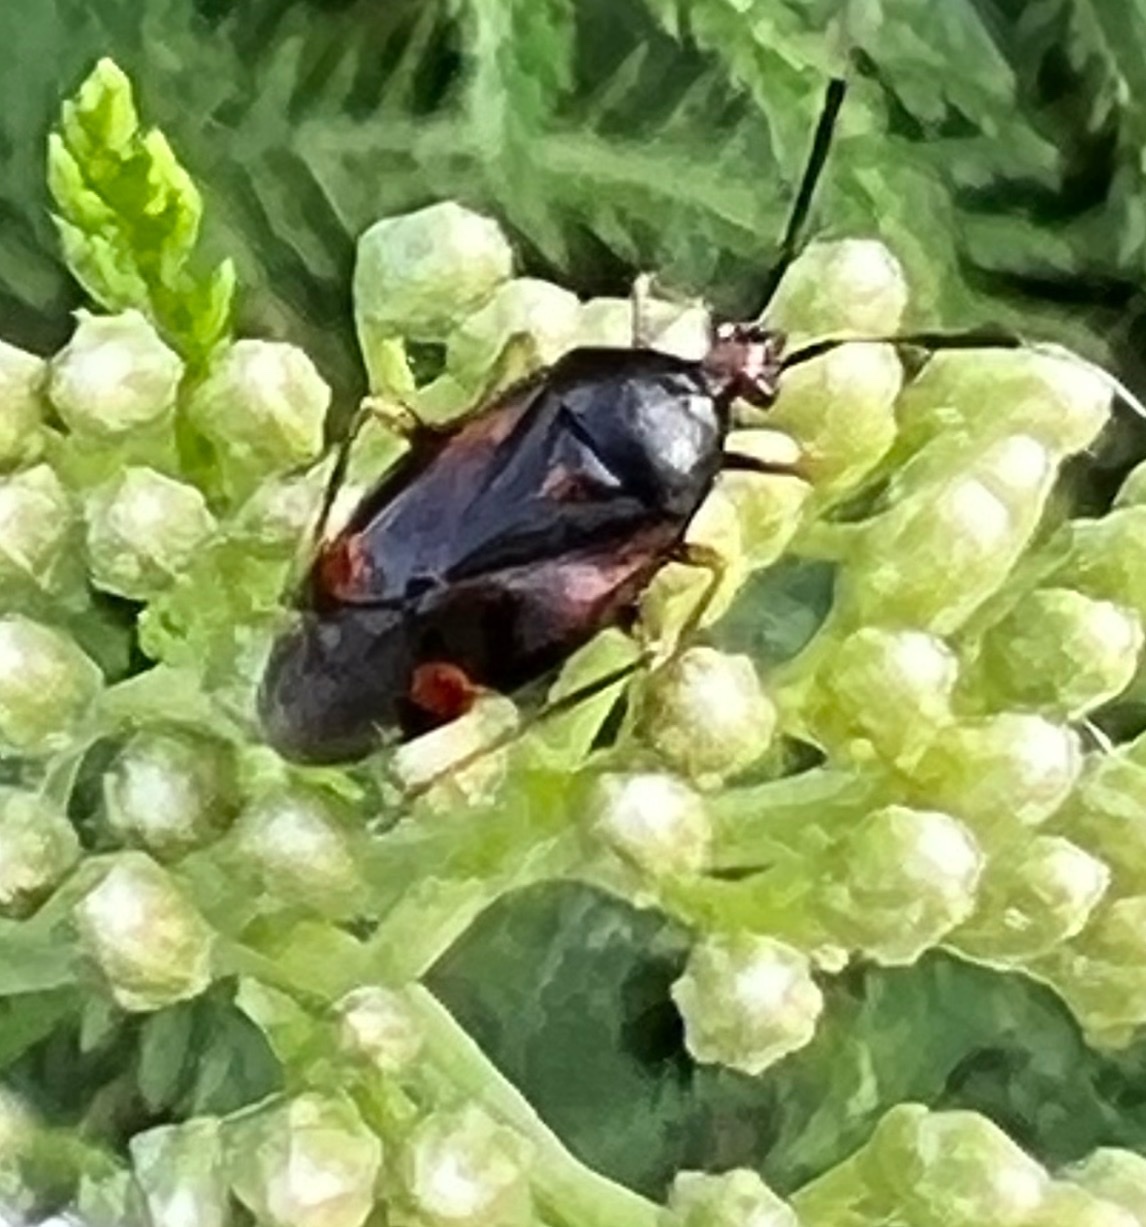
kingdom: Animalia
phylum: Arthropoda
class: Insecta
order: Hemiptera
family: Miridae
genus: Deraeocoris
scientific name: Deraeocoris ruber
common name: Plant bug
